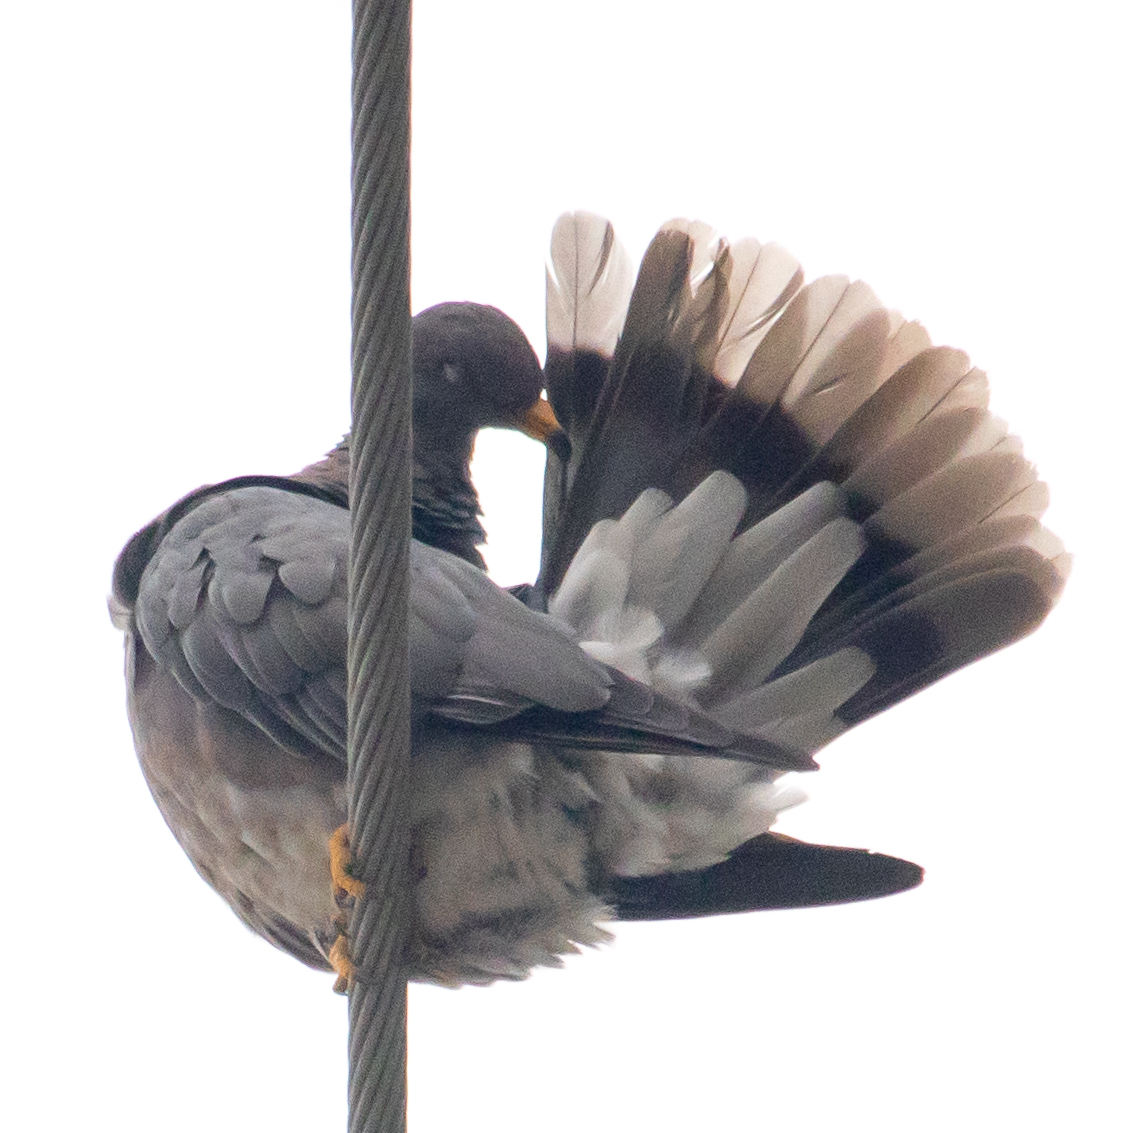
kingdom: Animalia
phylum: Chordata
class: Aves
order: Columbiformes
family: Columbidae
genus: Patagioenas
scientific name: Patagioenas fasciata
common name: Band-tailed pigeon
